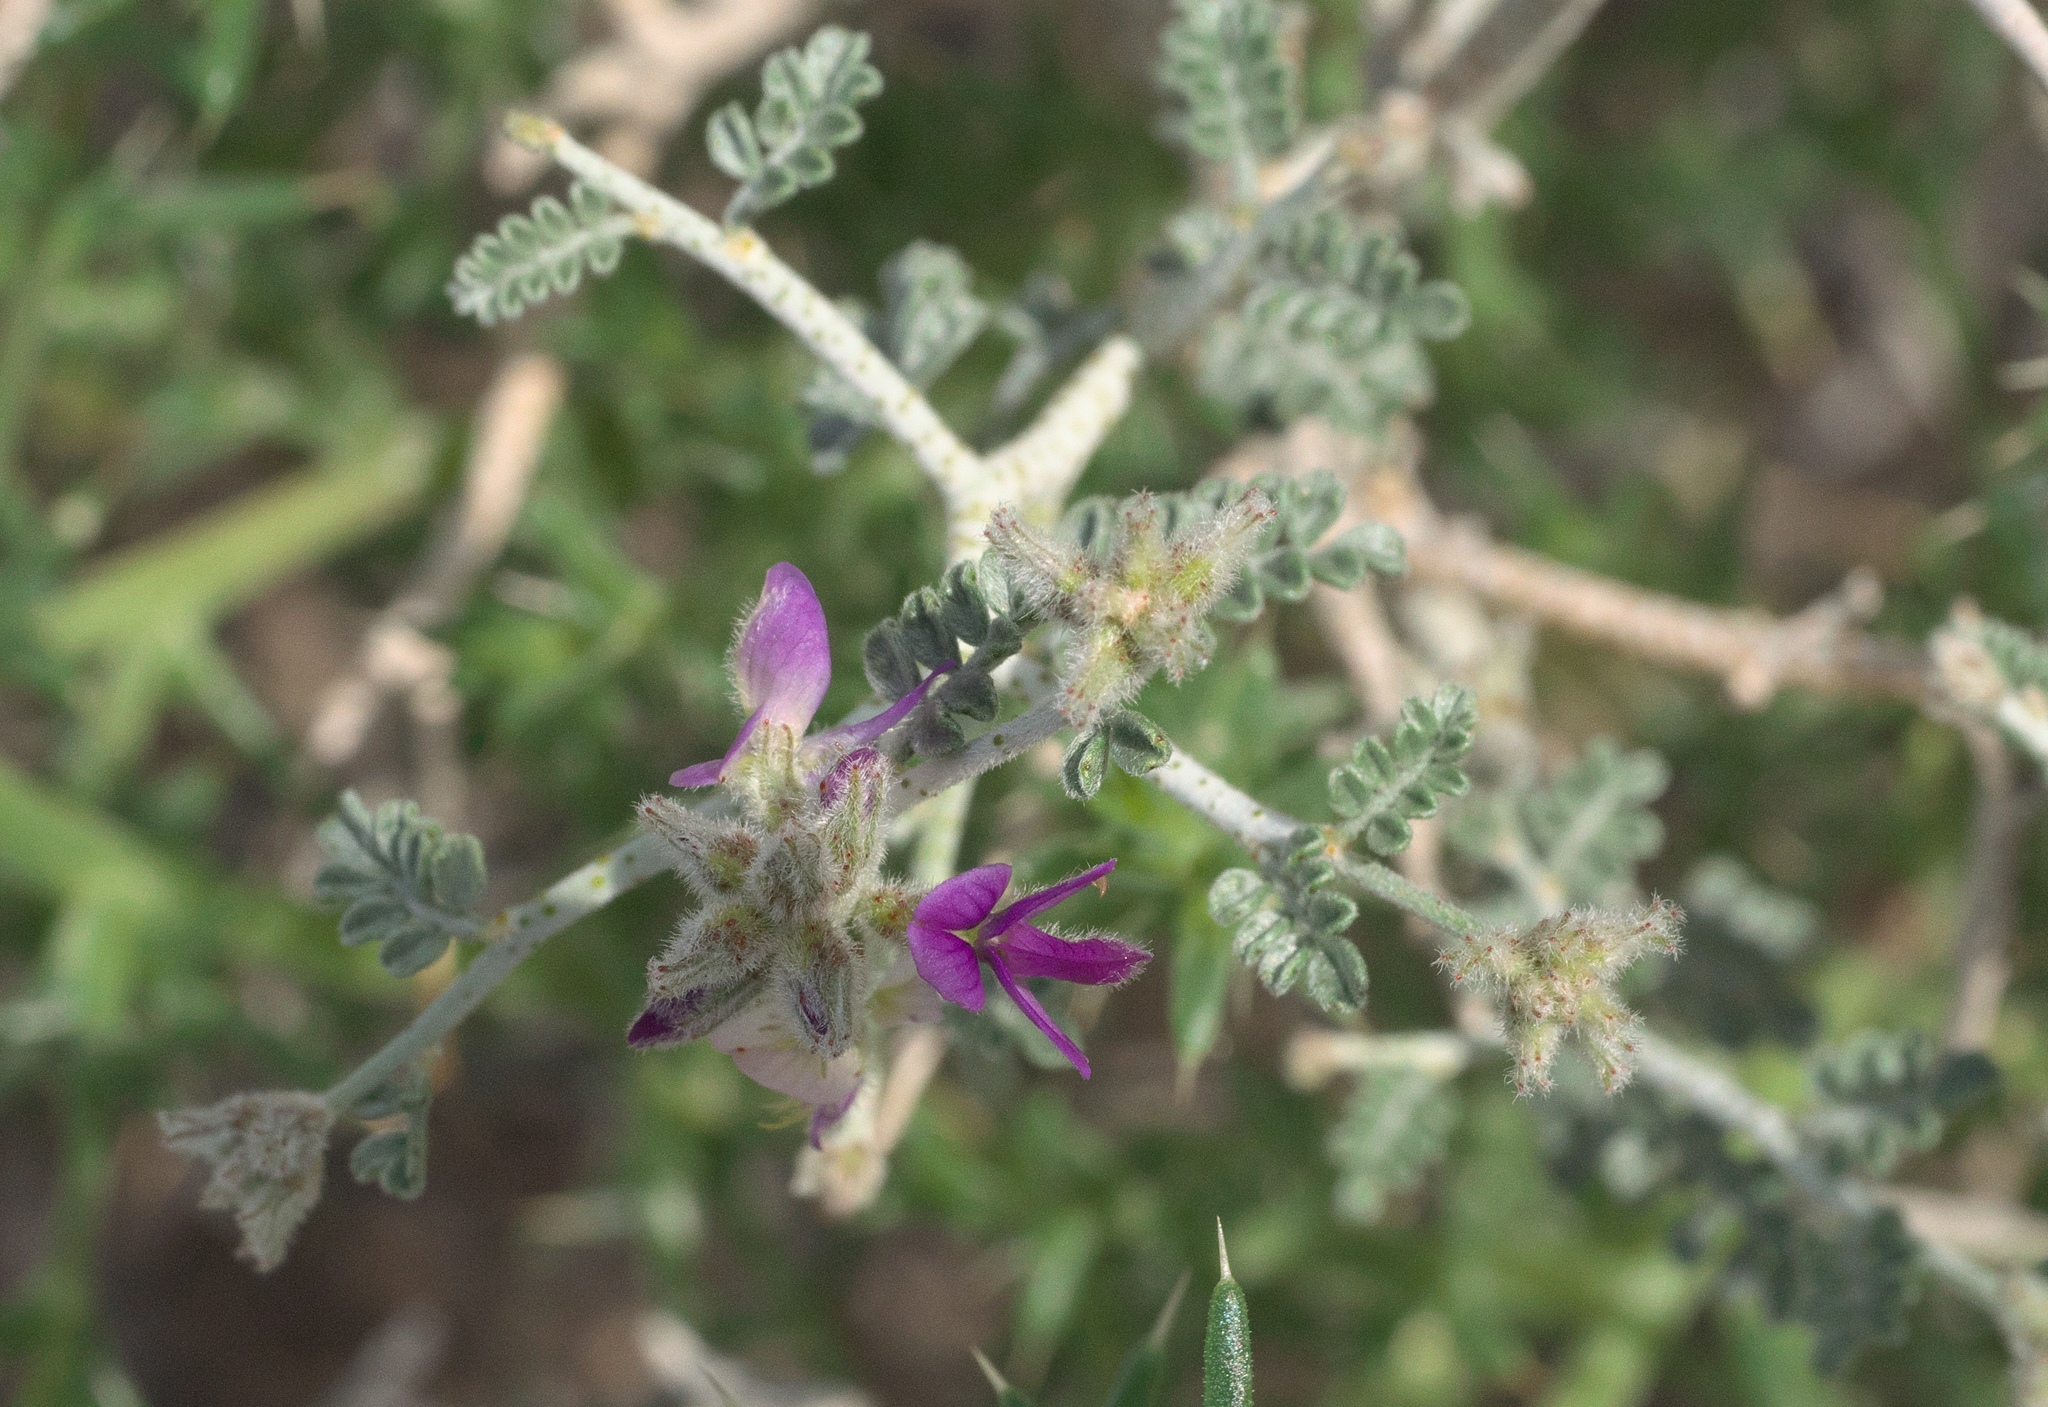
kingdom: Plantae
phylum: Tracheophyta
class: Magnoliopsida
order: Fabales
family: Fabaceae
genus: Psorothamnus
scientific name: Psorothamnus polydenius
